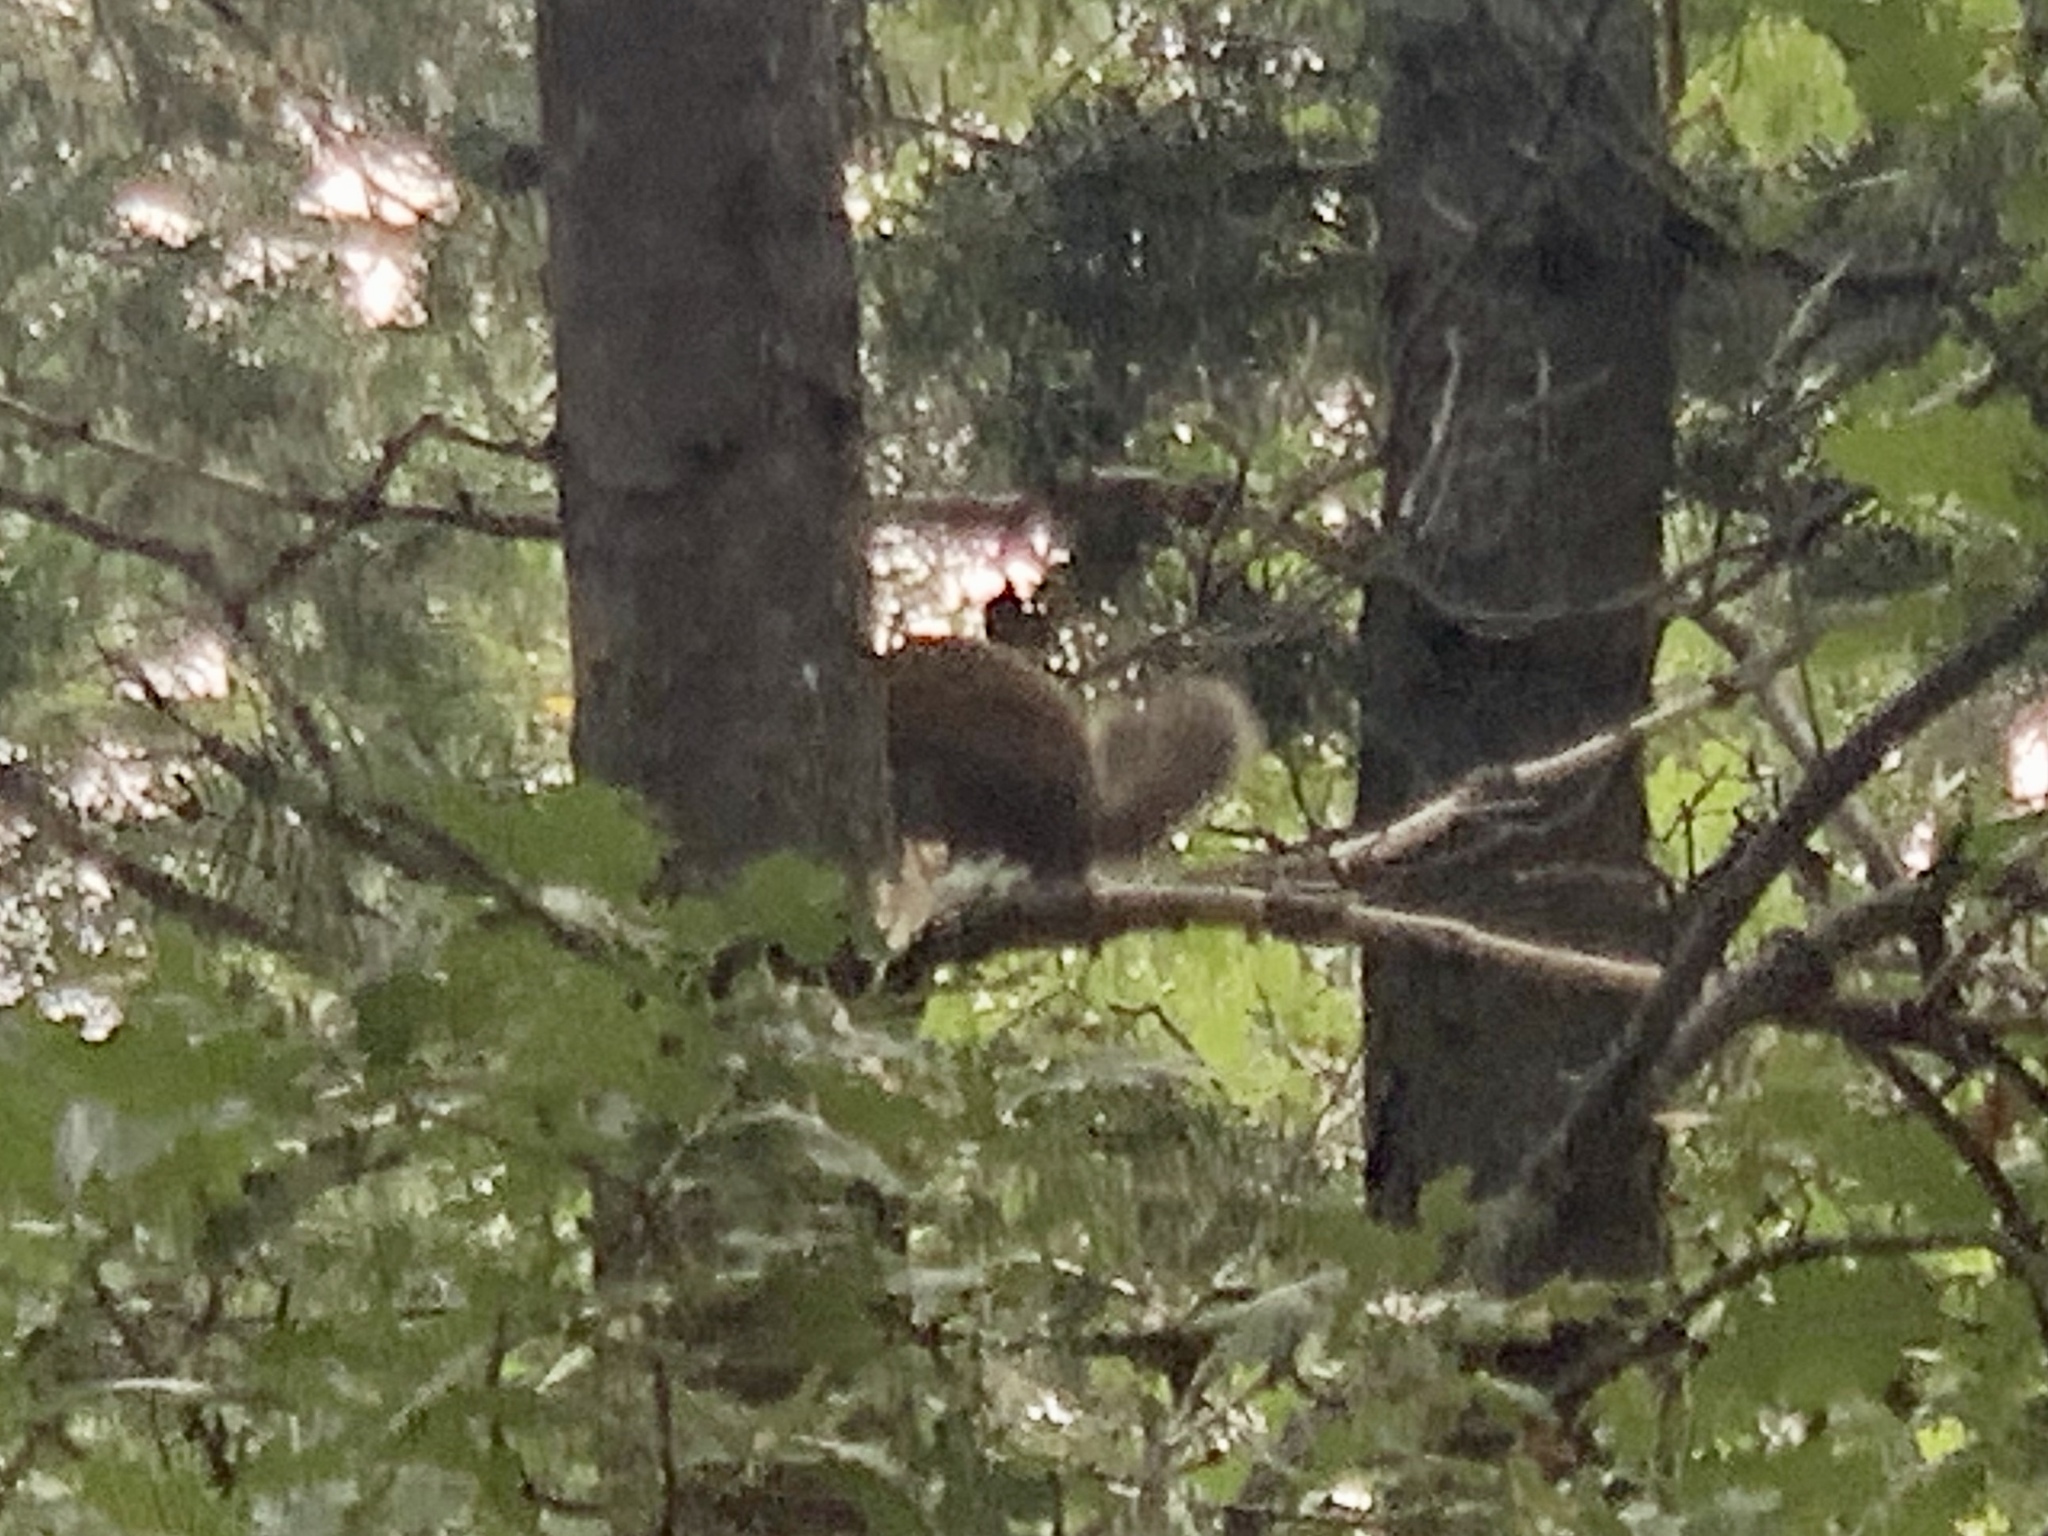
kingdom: Animalia
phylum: Chordata
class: Mammalia
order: Rodentia
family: Sciuridae
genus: Tamiasciurus
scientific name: Tamiasciurus hudsonicus
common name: Red squirrel
